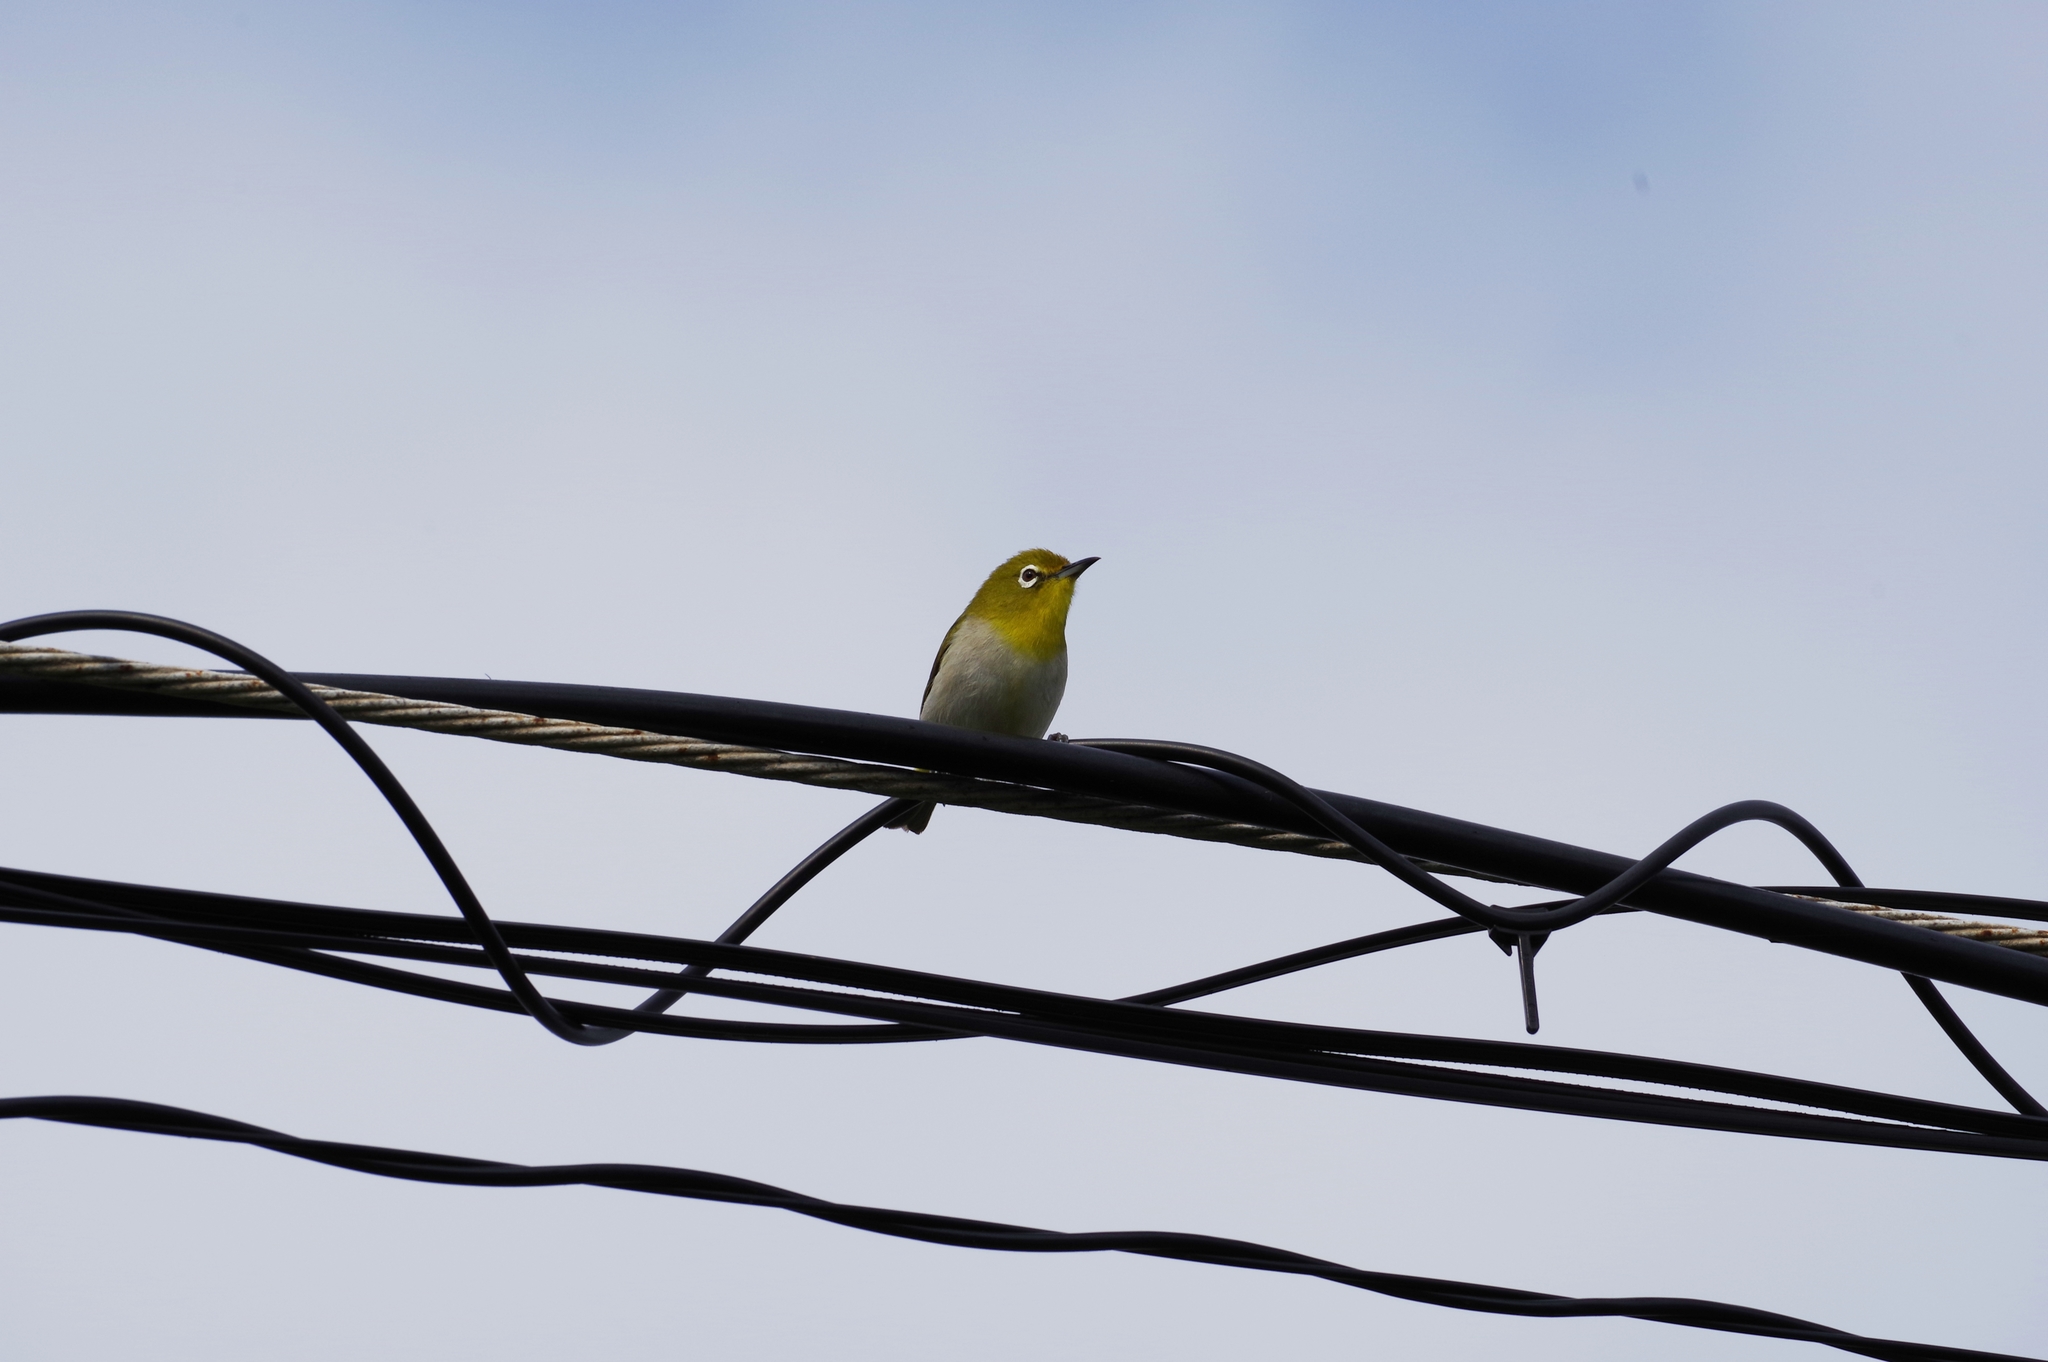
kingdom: Animalia
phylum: Chordata
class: Aves
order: Passeriformes
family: Zosteropidae
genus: Zosterops
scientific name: Zosterops japonicus
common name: Japanese white-eye
